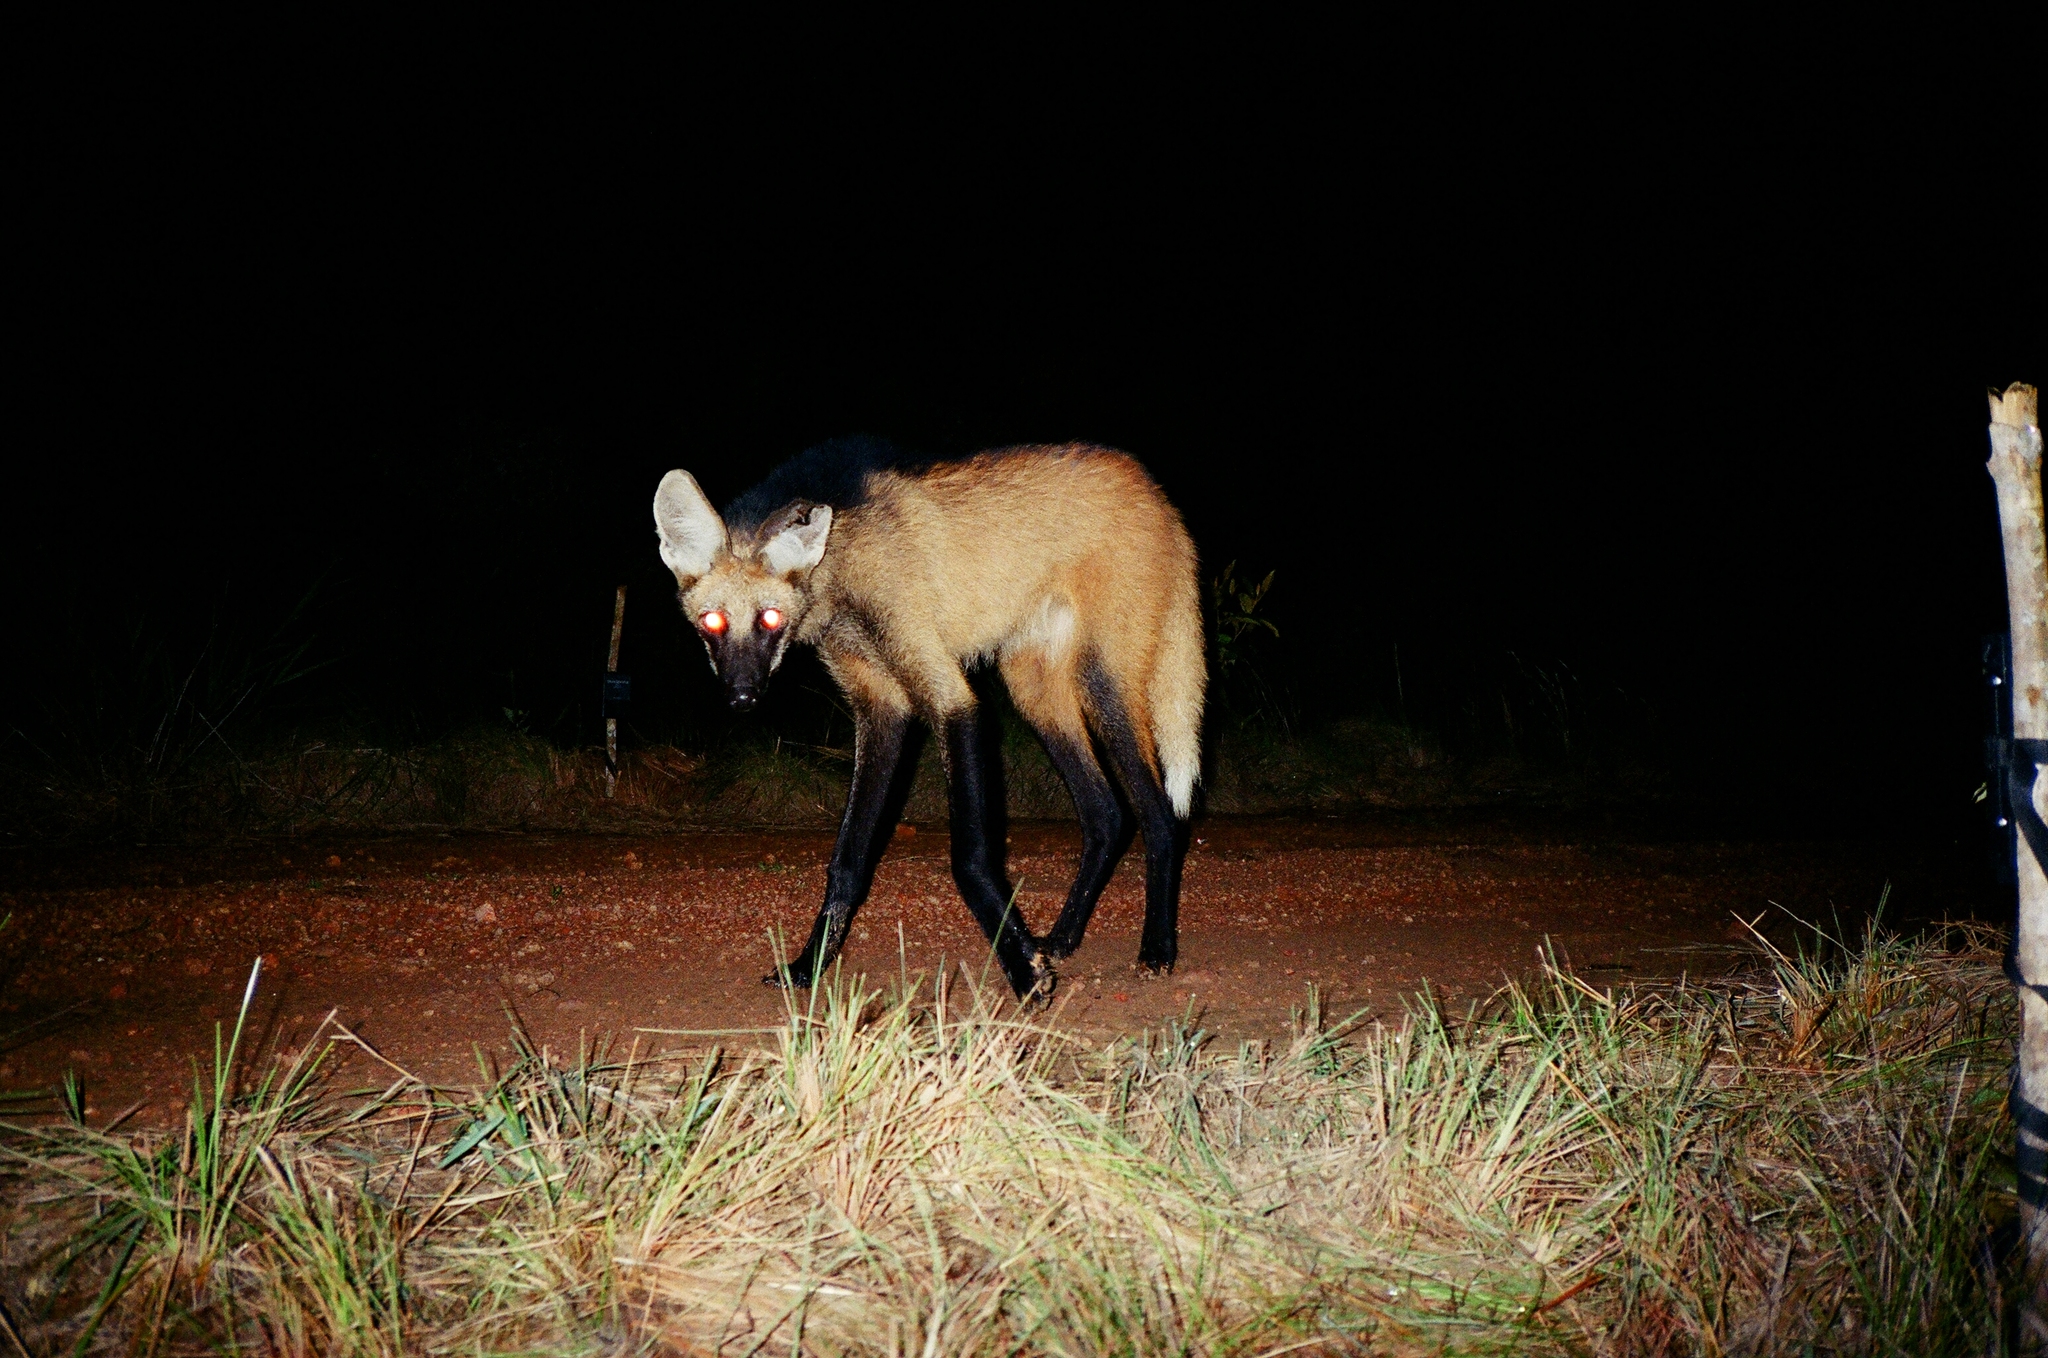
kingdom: Animalia
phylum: Chordata
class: Mammalia
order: Carnivora
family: Canidae
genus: Chrysocyon
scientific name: Chrysocyon brachyurus
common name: Maned wolf
